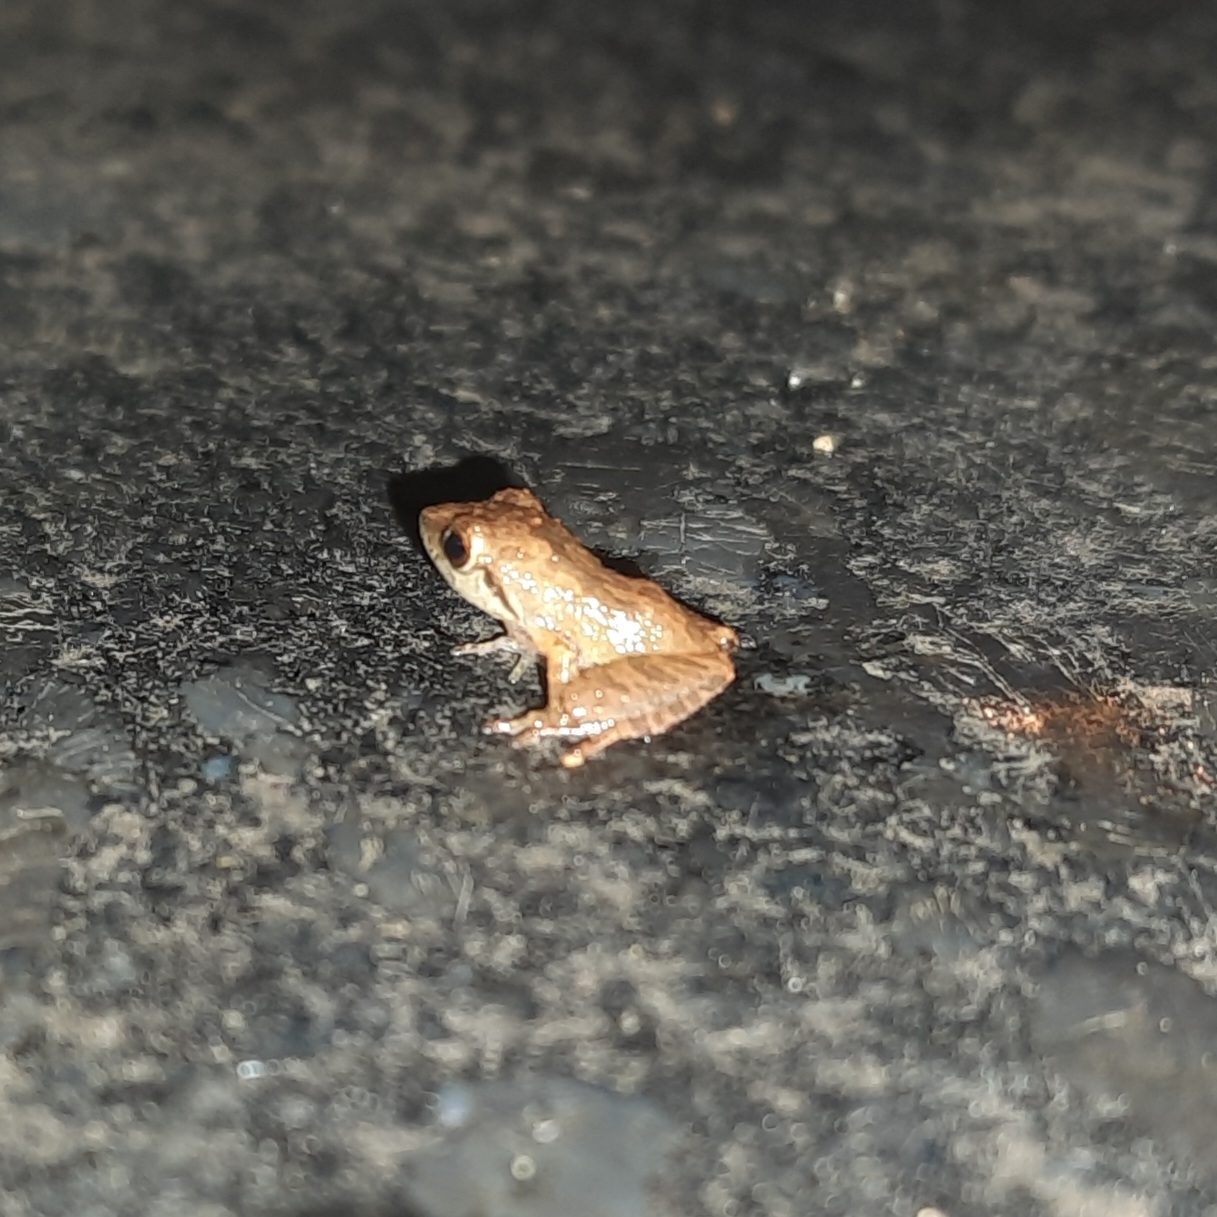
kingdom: Animalia
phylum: Chordata
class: Amphibia
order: Anura
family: Rhacophoridae
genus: Pseudophilautus
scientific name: Pseudophilautus wynaadensis
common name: Dark-eared bush frog
